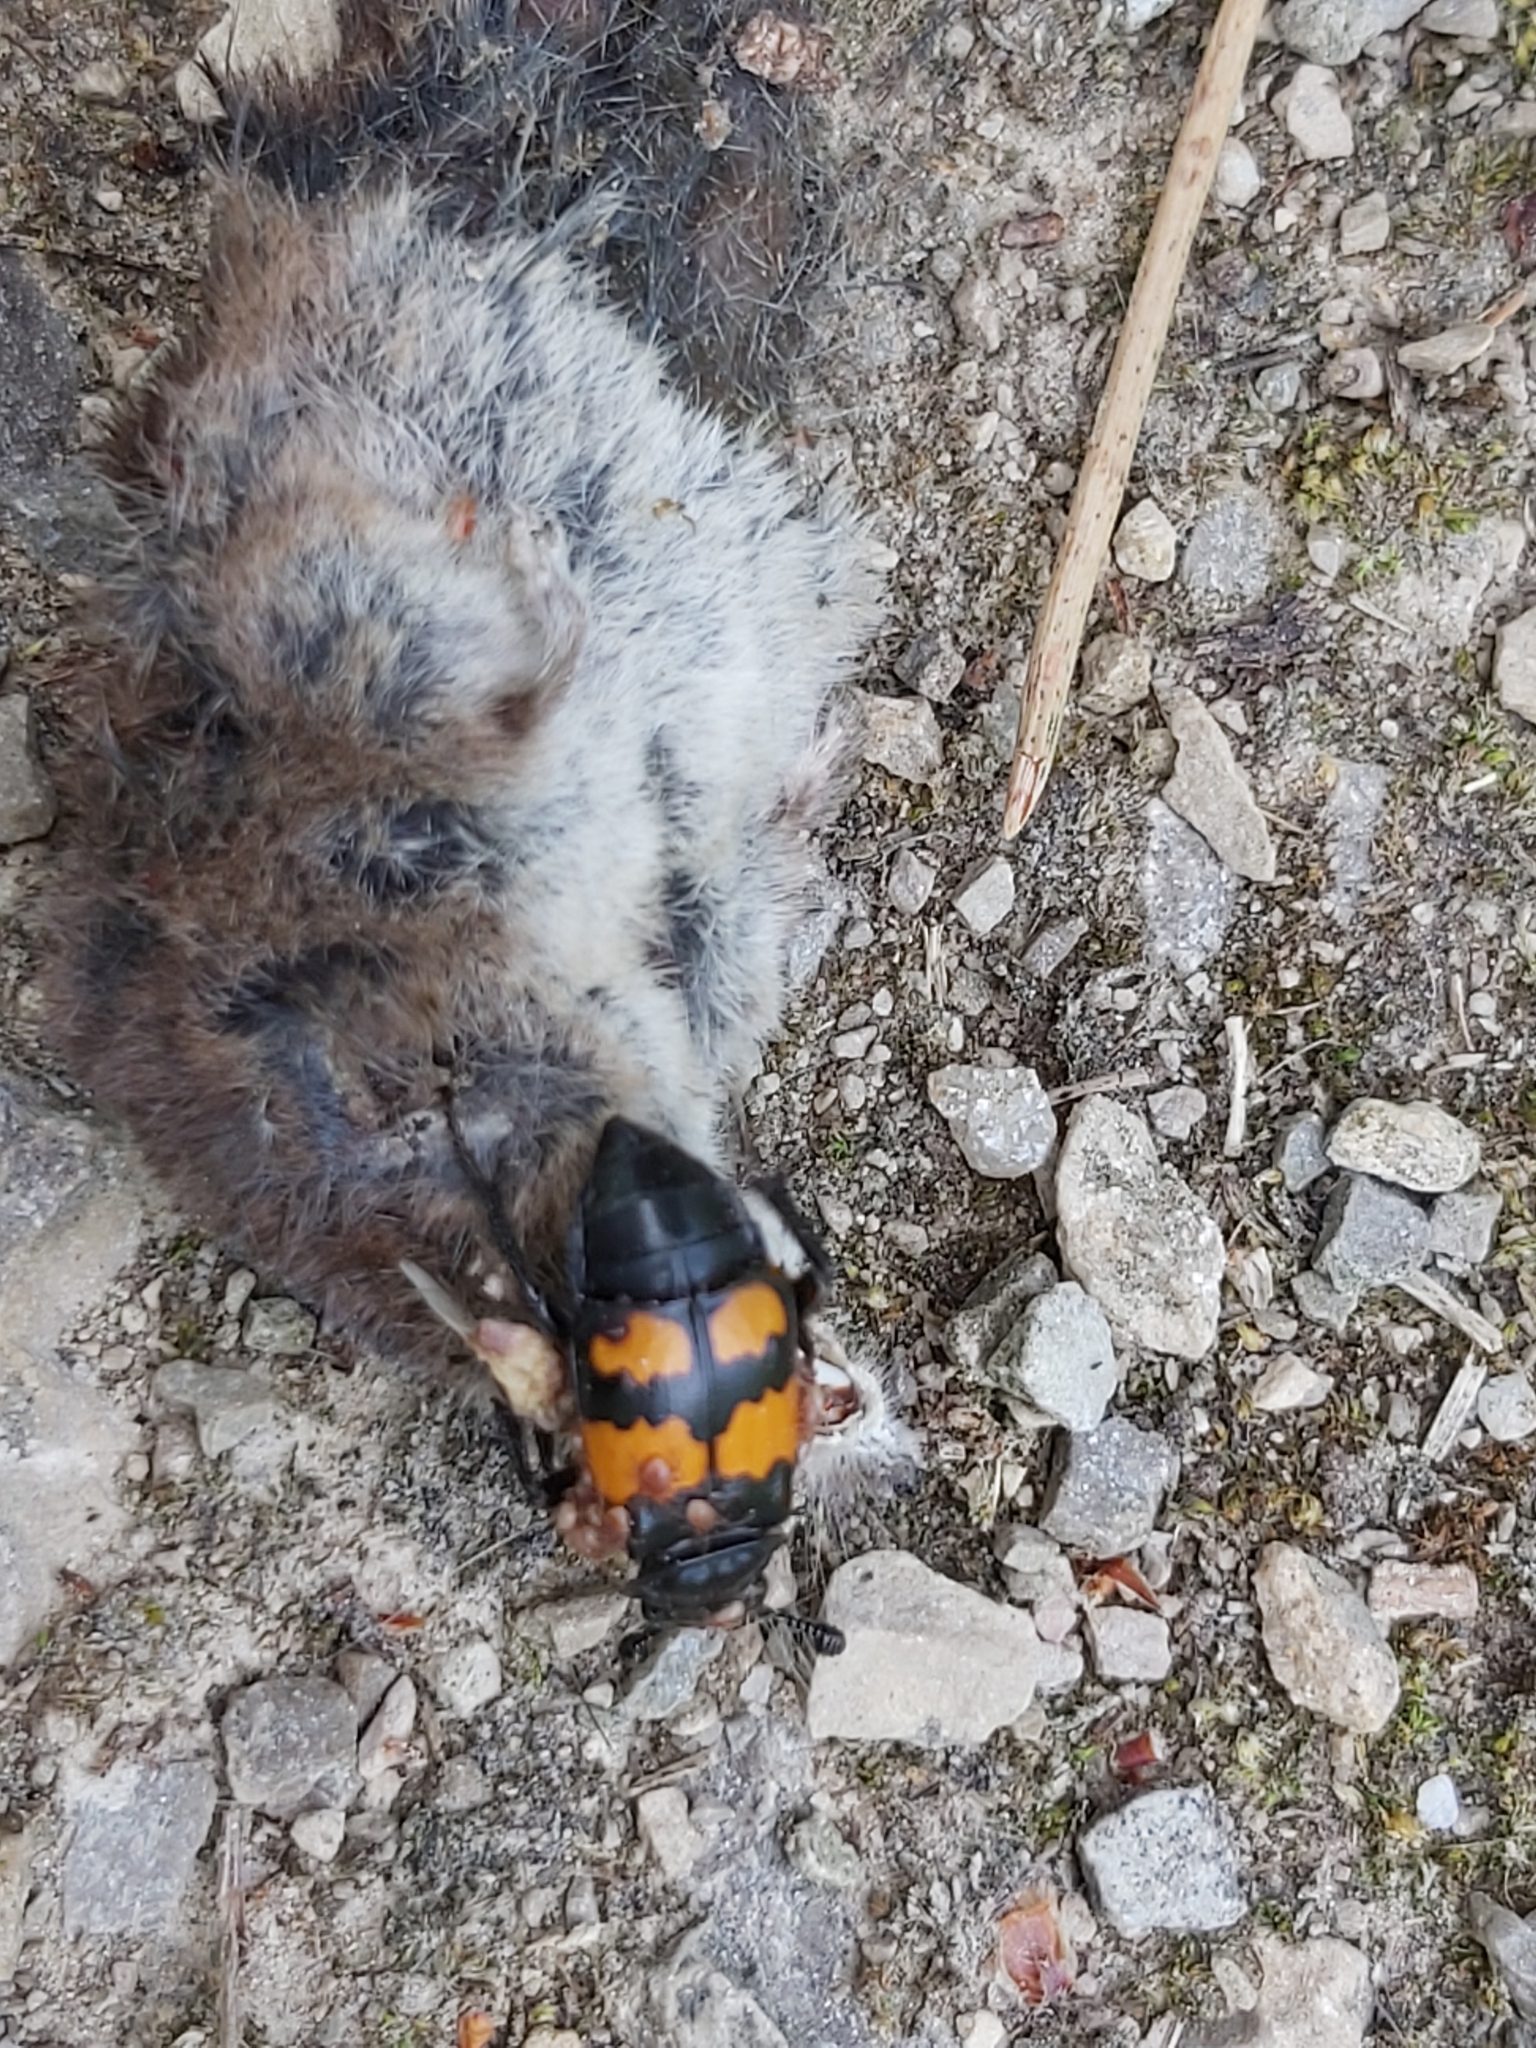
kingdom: Animalia
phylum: Arthropoda
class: Insecta
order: Coleoptera
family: Staphylinidae
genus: Nicrophorus
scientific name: Nicrophorus vespilloides
